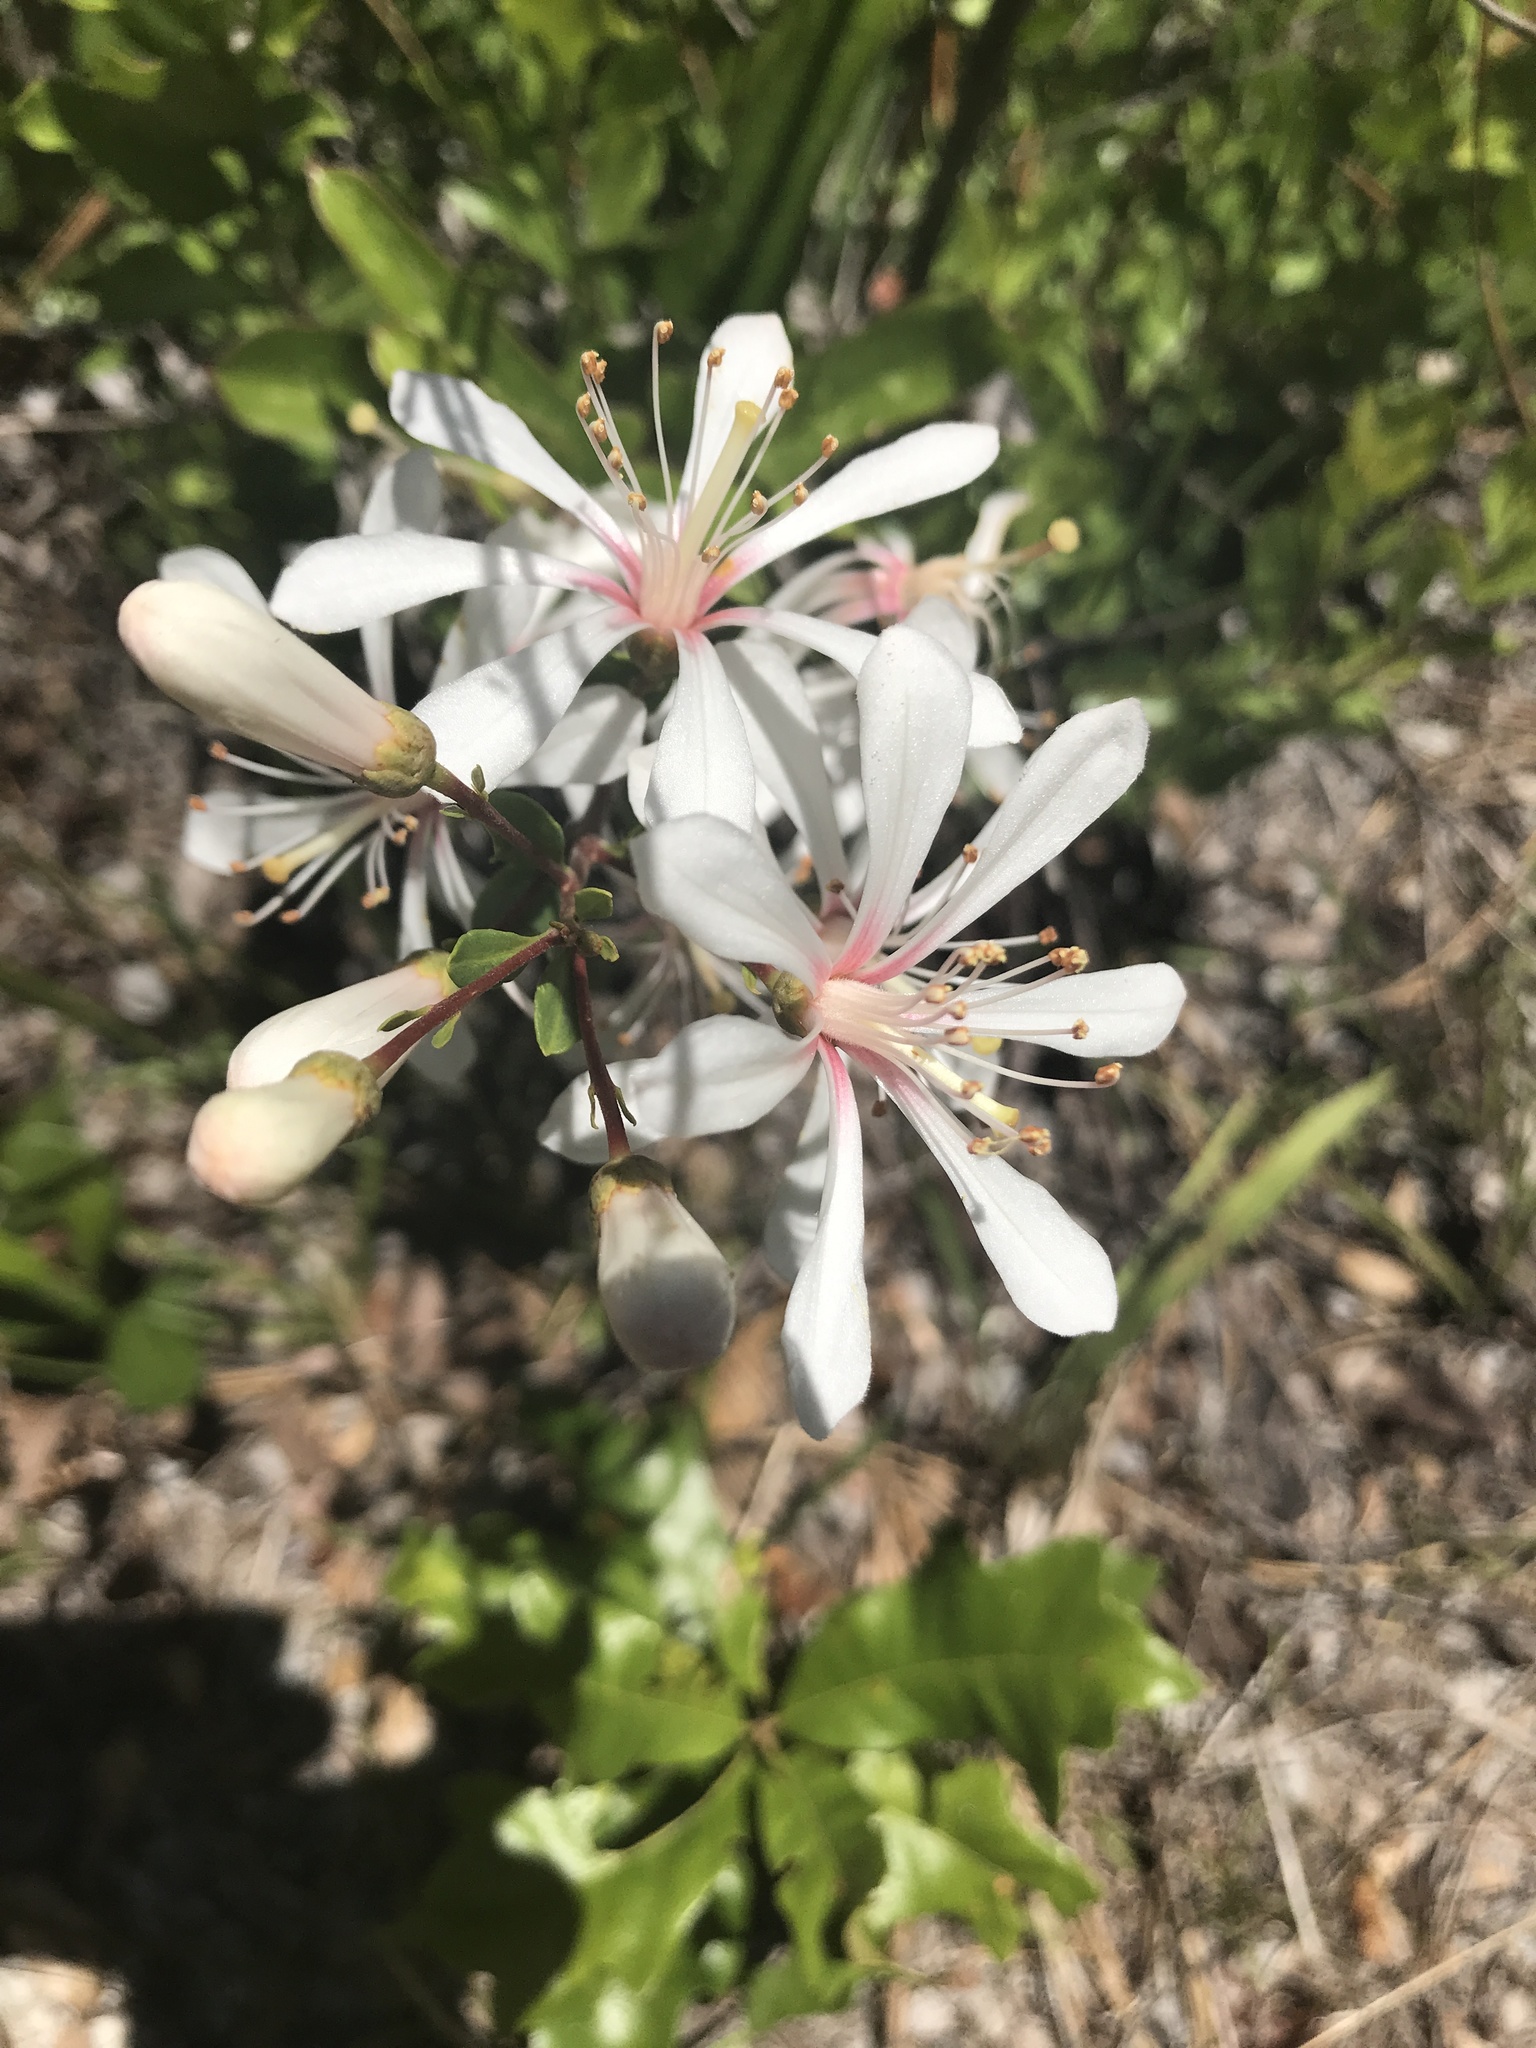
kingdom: Plantae
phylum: Tracheophyta
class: Magnoliopsida
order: Ericales
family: Ericaceae
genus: Bejaria
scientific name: Bejaria racemosa
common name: Tarflower
